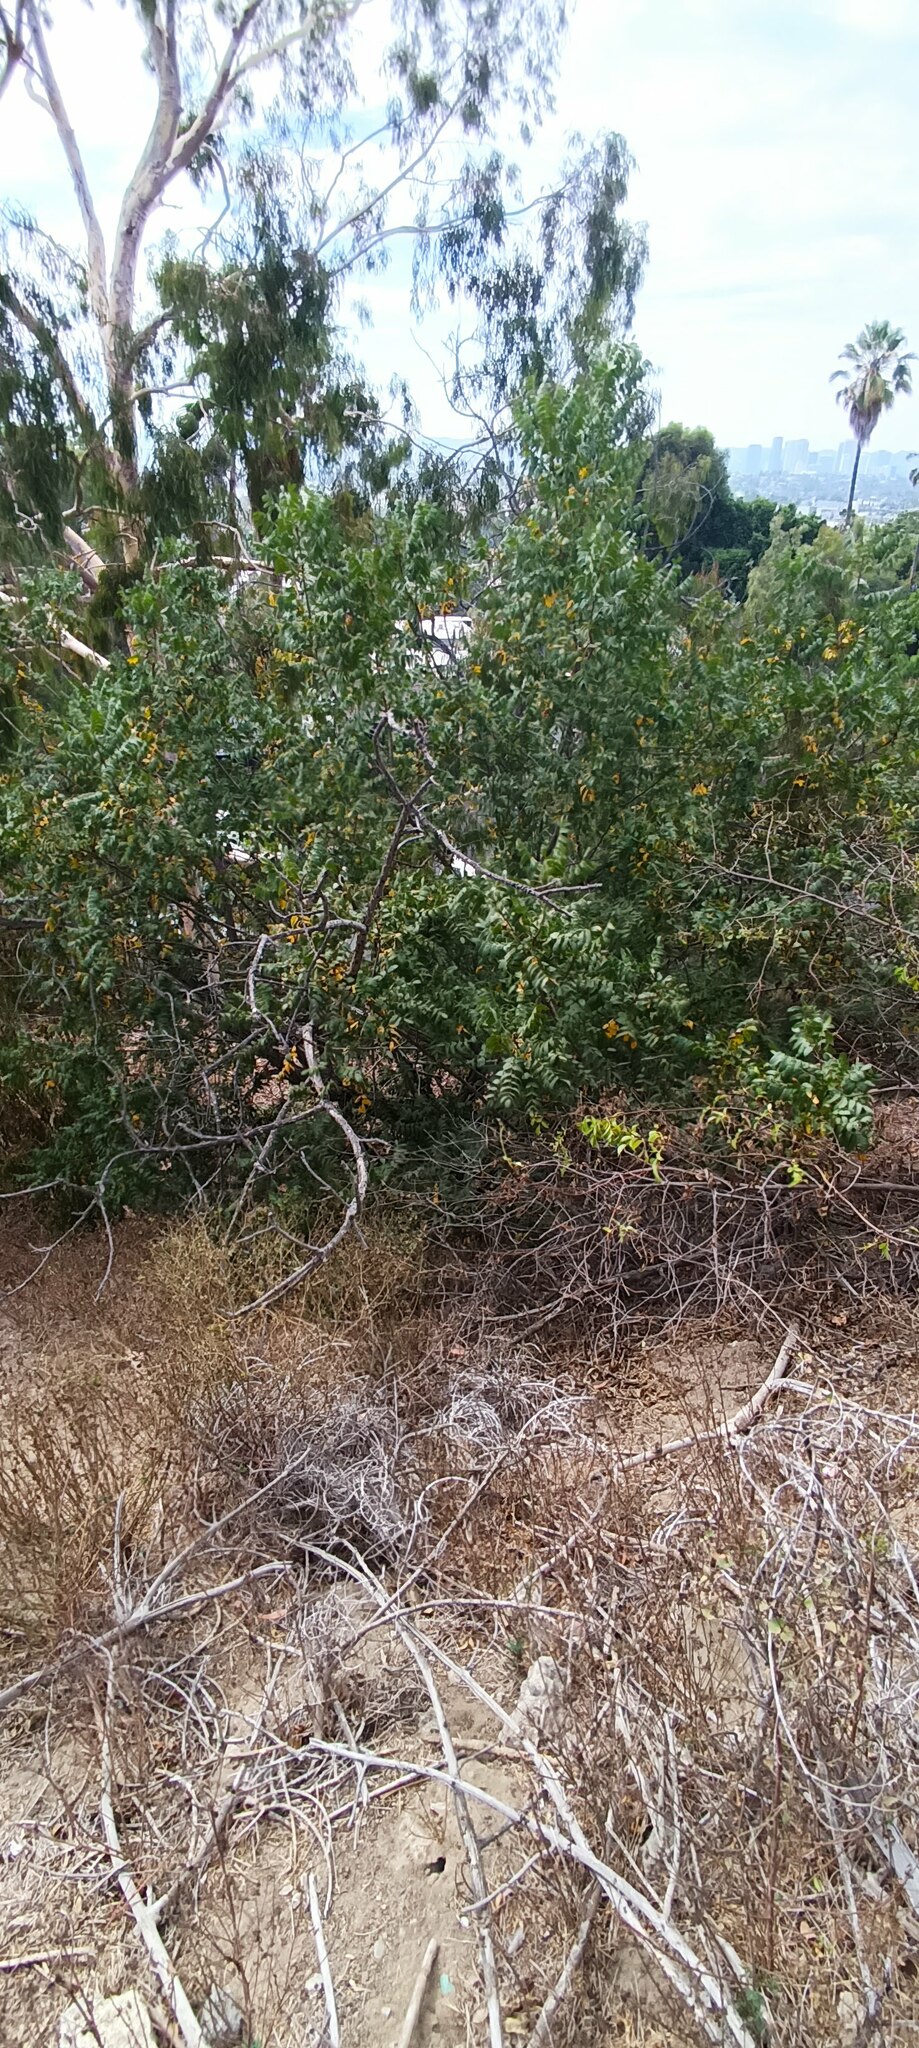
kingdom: Plantae
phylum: Tracheophyta
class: Magnoliopsida
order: Fagales
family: Juglandaceae
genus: Juglans
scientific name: Juglans californica
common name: Southern california black walnut
